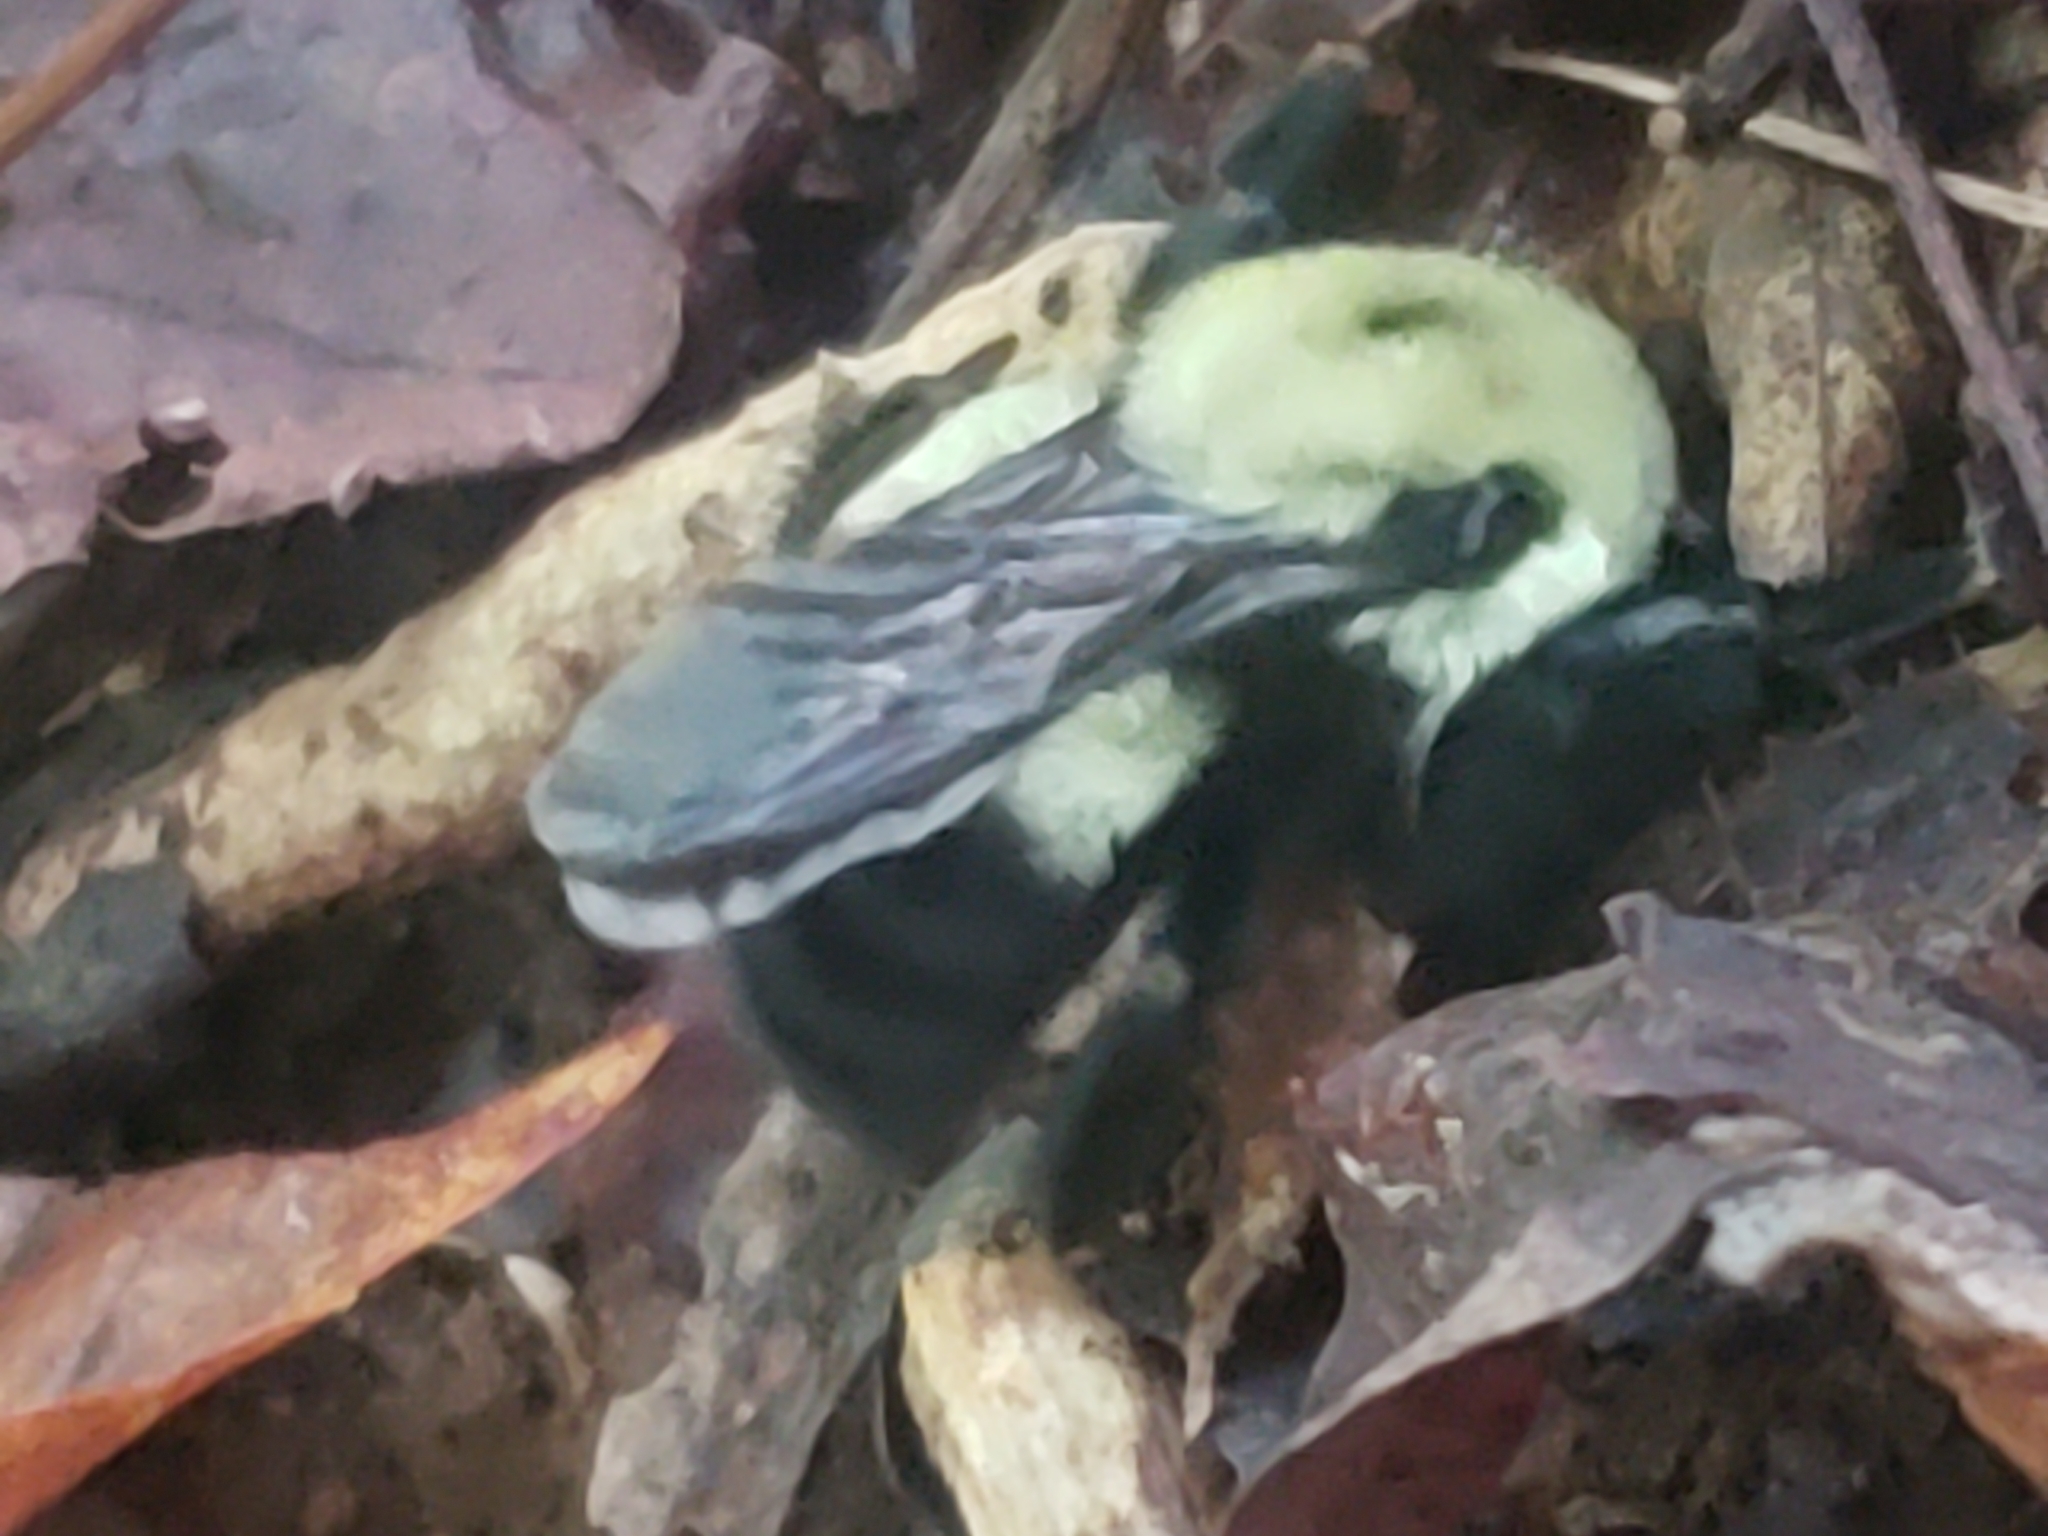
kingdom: Animalia
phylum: Arthropoda
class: Insecta
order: Hymenoptera
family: Apidae
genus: Bombus
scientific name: Bombus griseocollis
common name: Brown-belted bumble bee
